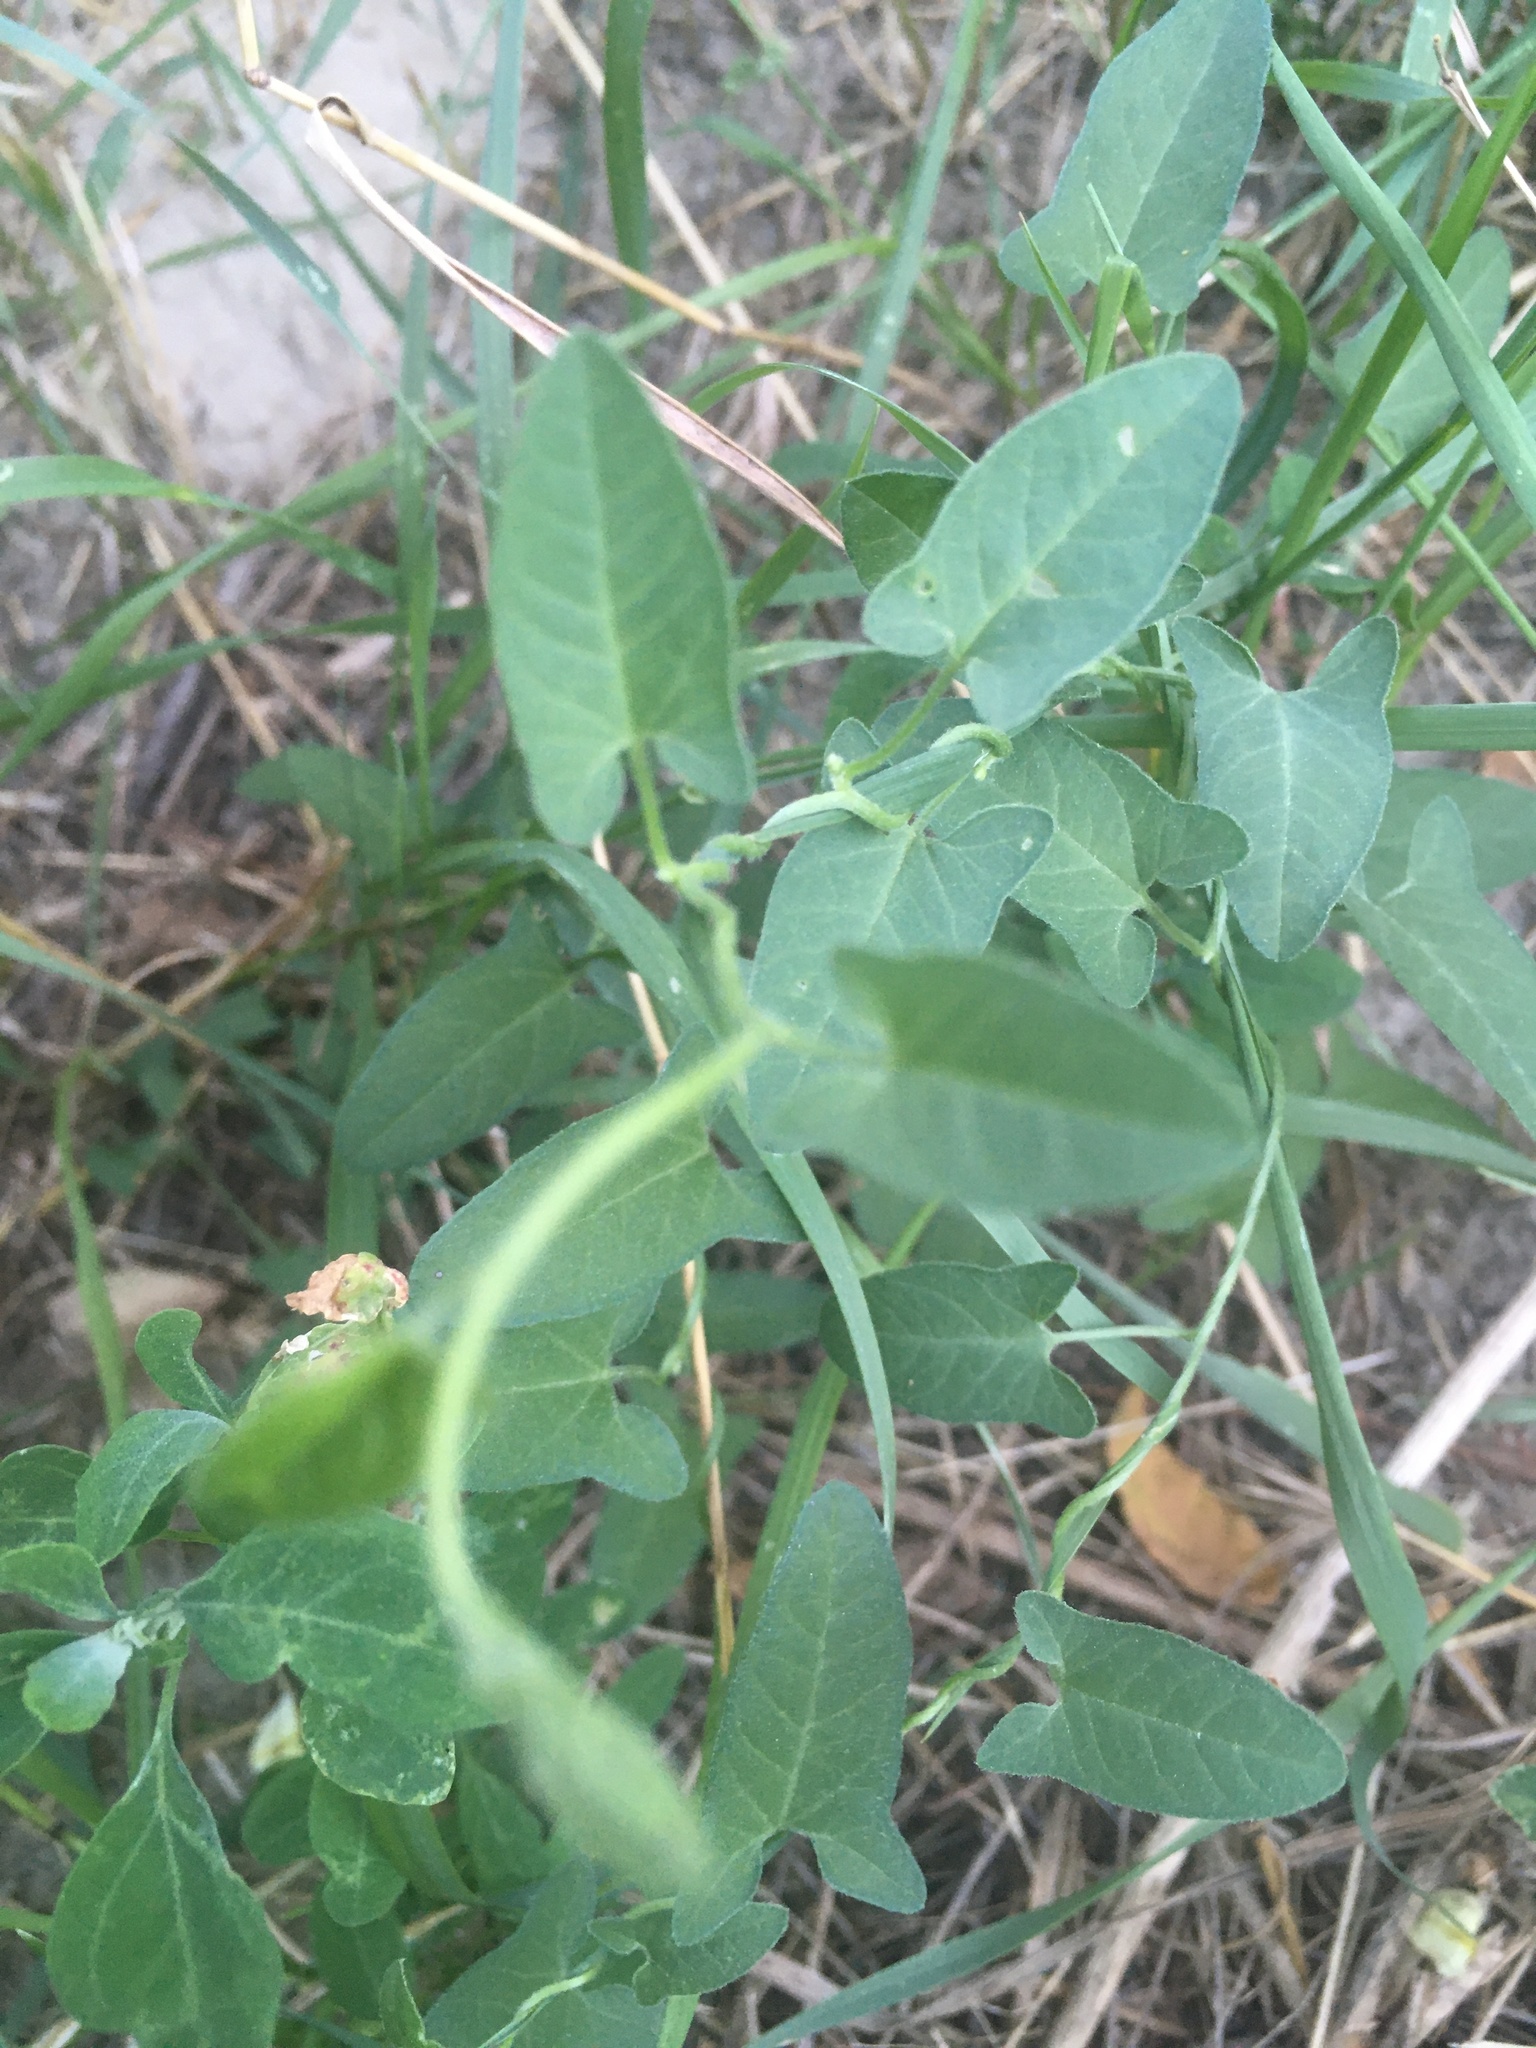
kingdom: Plantae
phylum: Tracheophyta
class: Magnoliopsida
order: Solanales
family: Convolvulaceae
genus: Convolvulus
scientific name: Convolvulus arvensis
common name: Field bindweed
